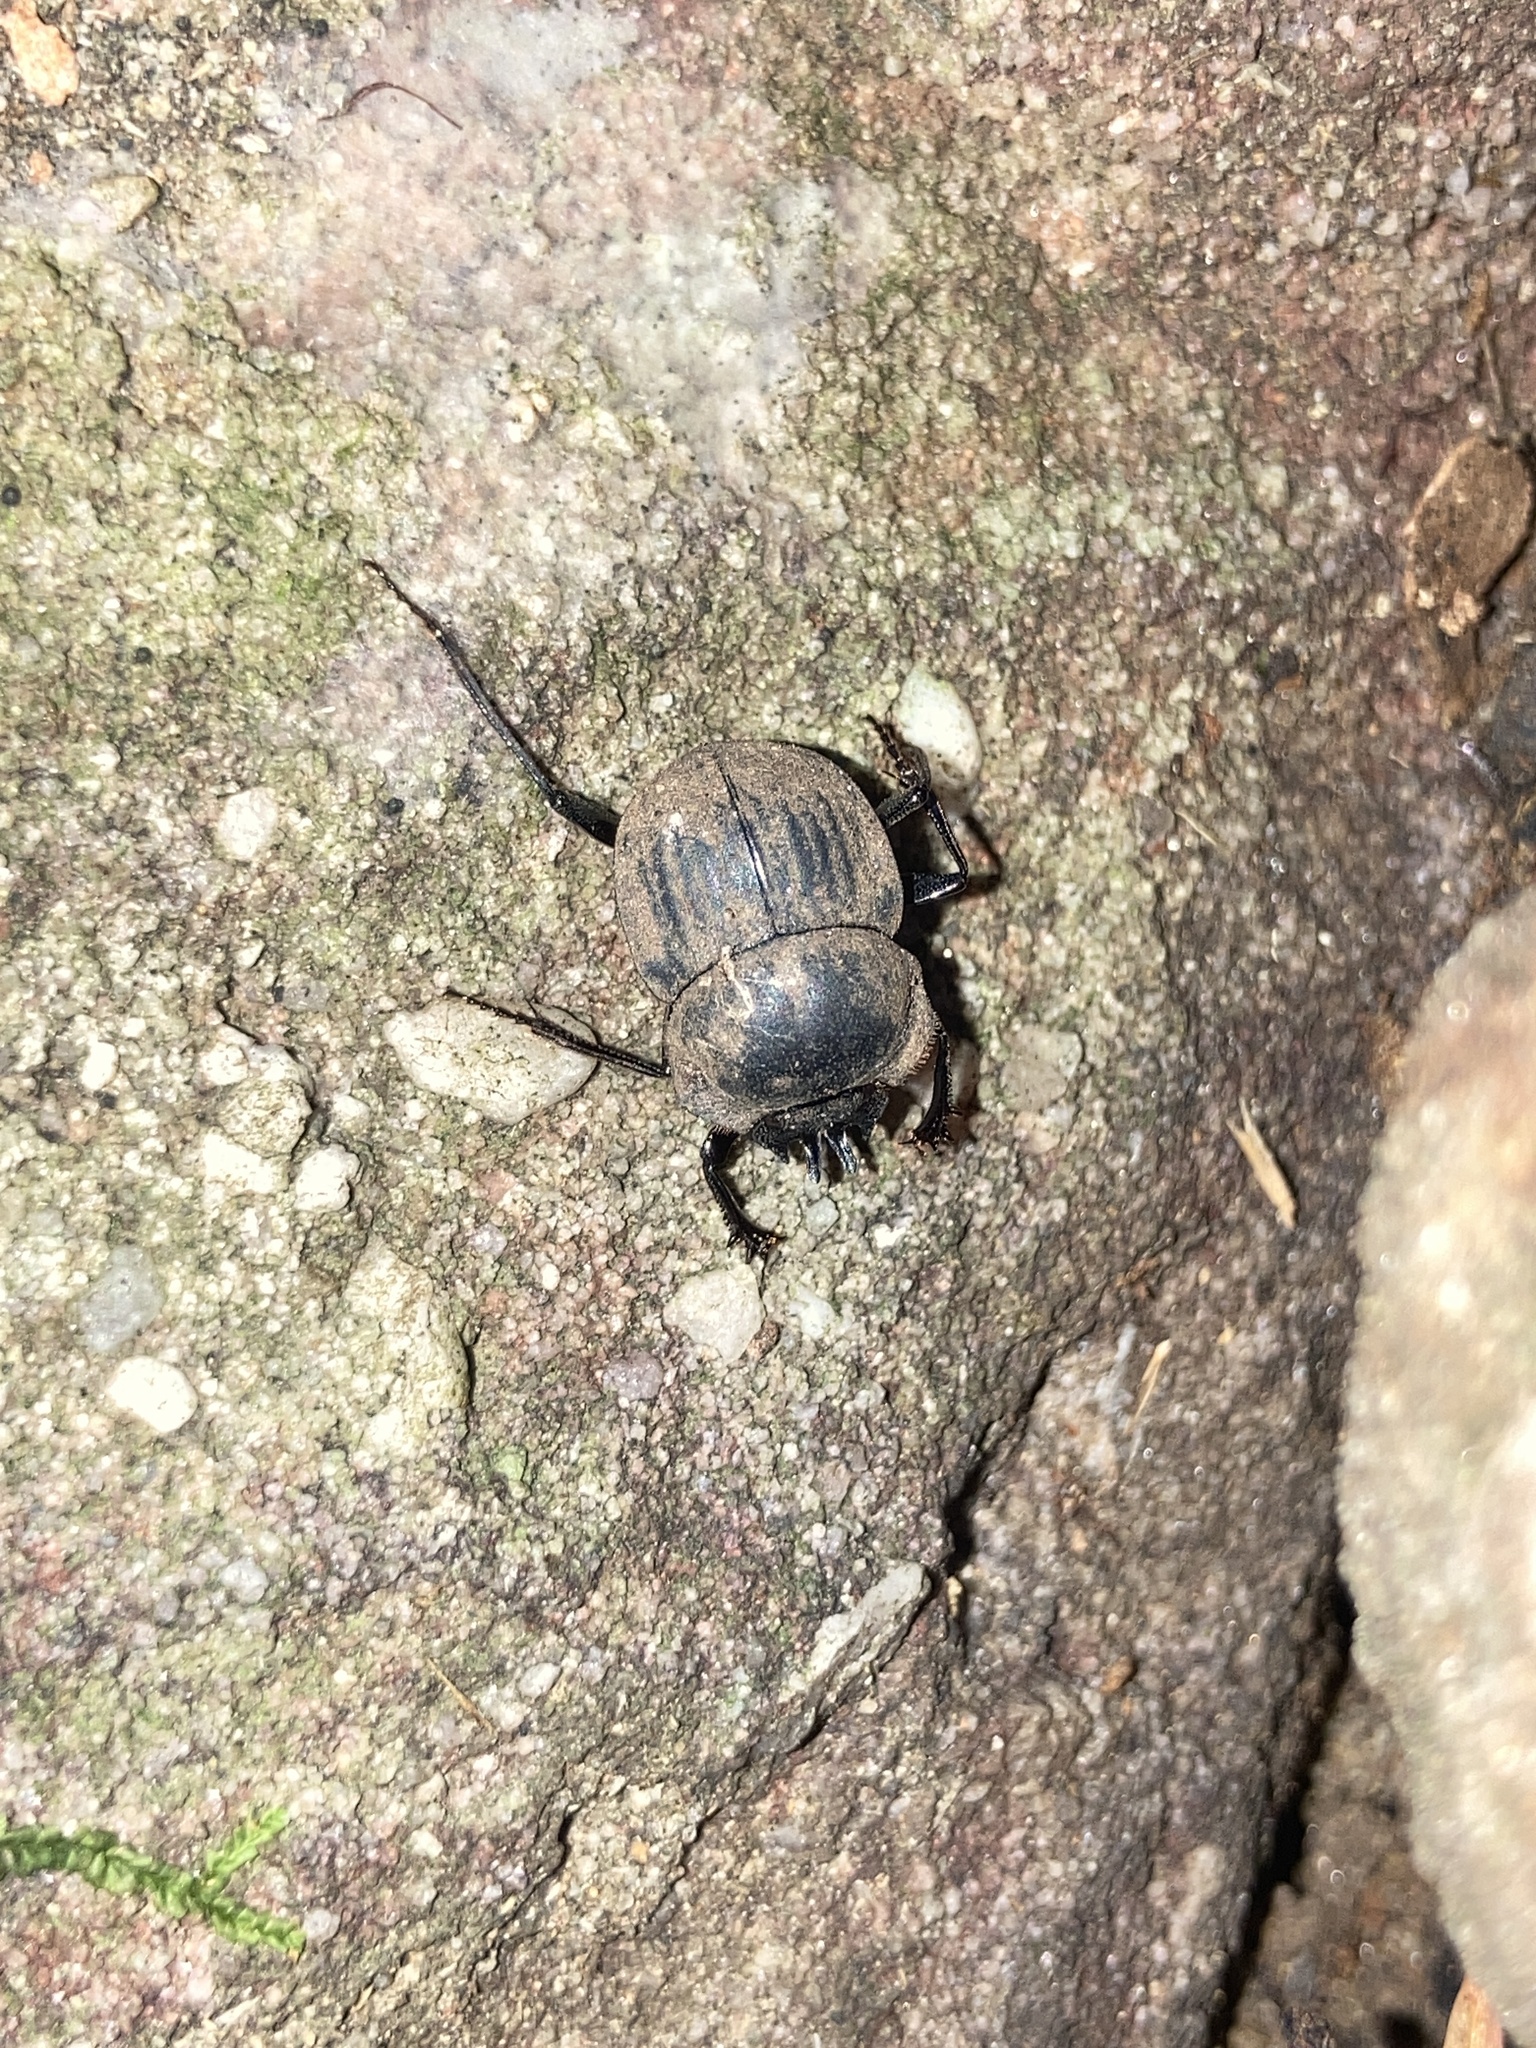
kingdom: Animalia
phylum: Arthropoda
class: Insecta
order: Coleoptera
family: Scarabaeidae
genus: Cephalodesmius
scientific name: Cephalodesmius armiger
